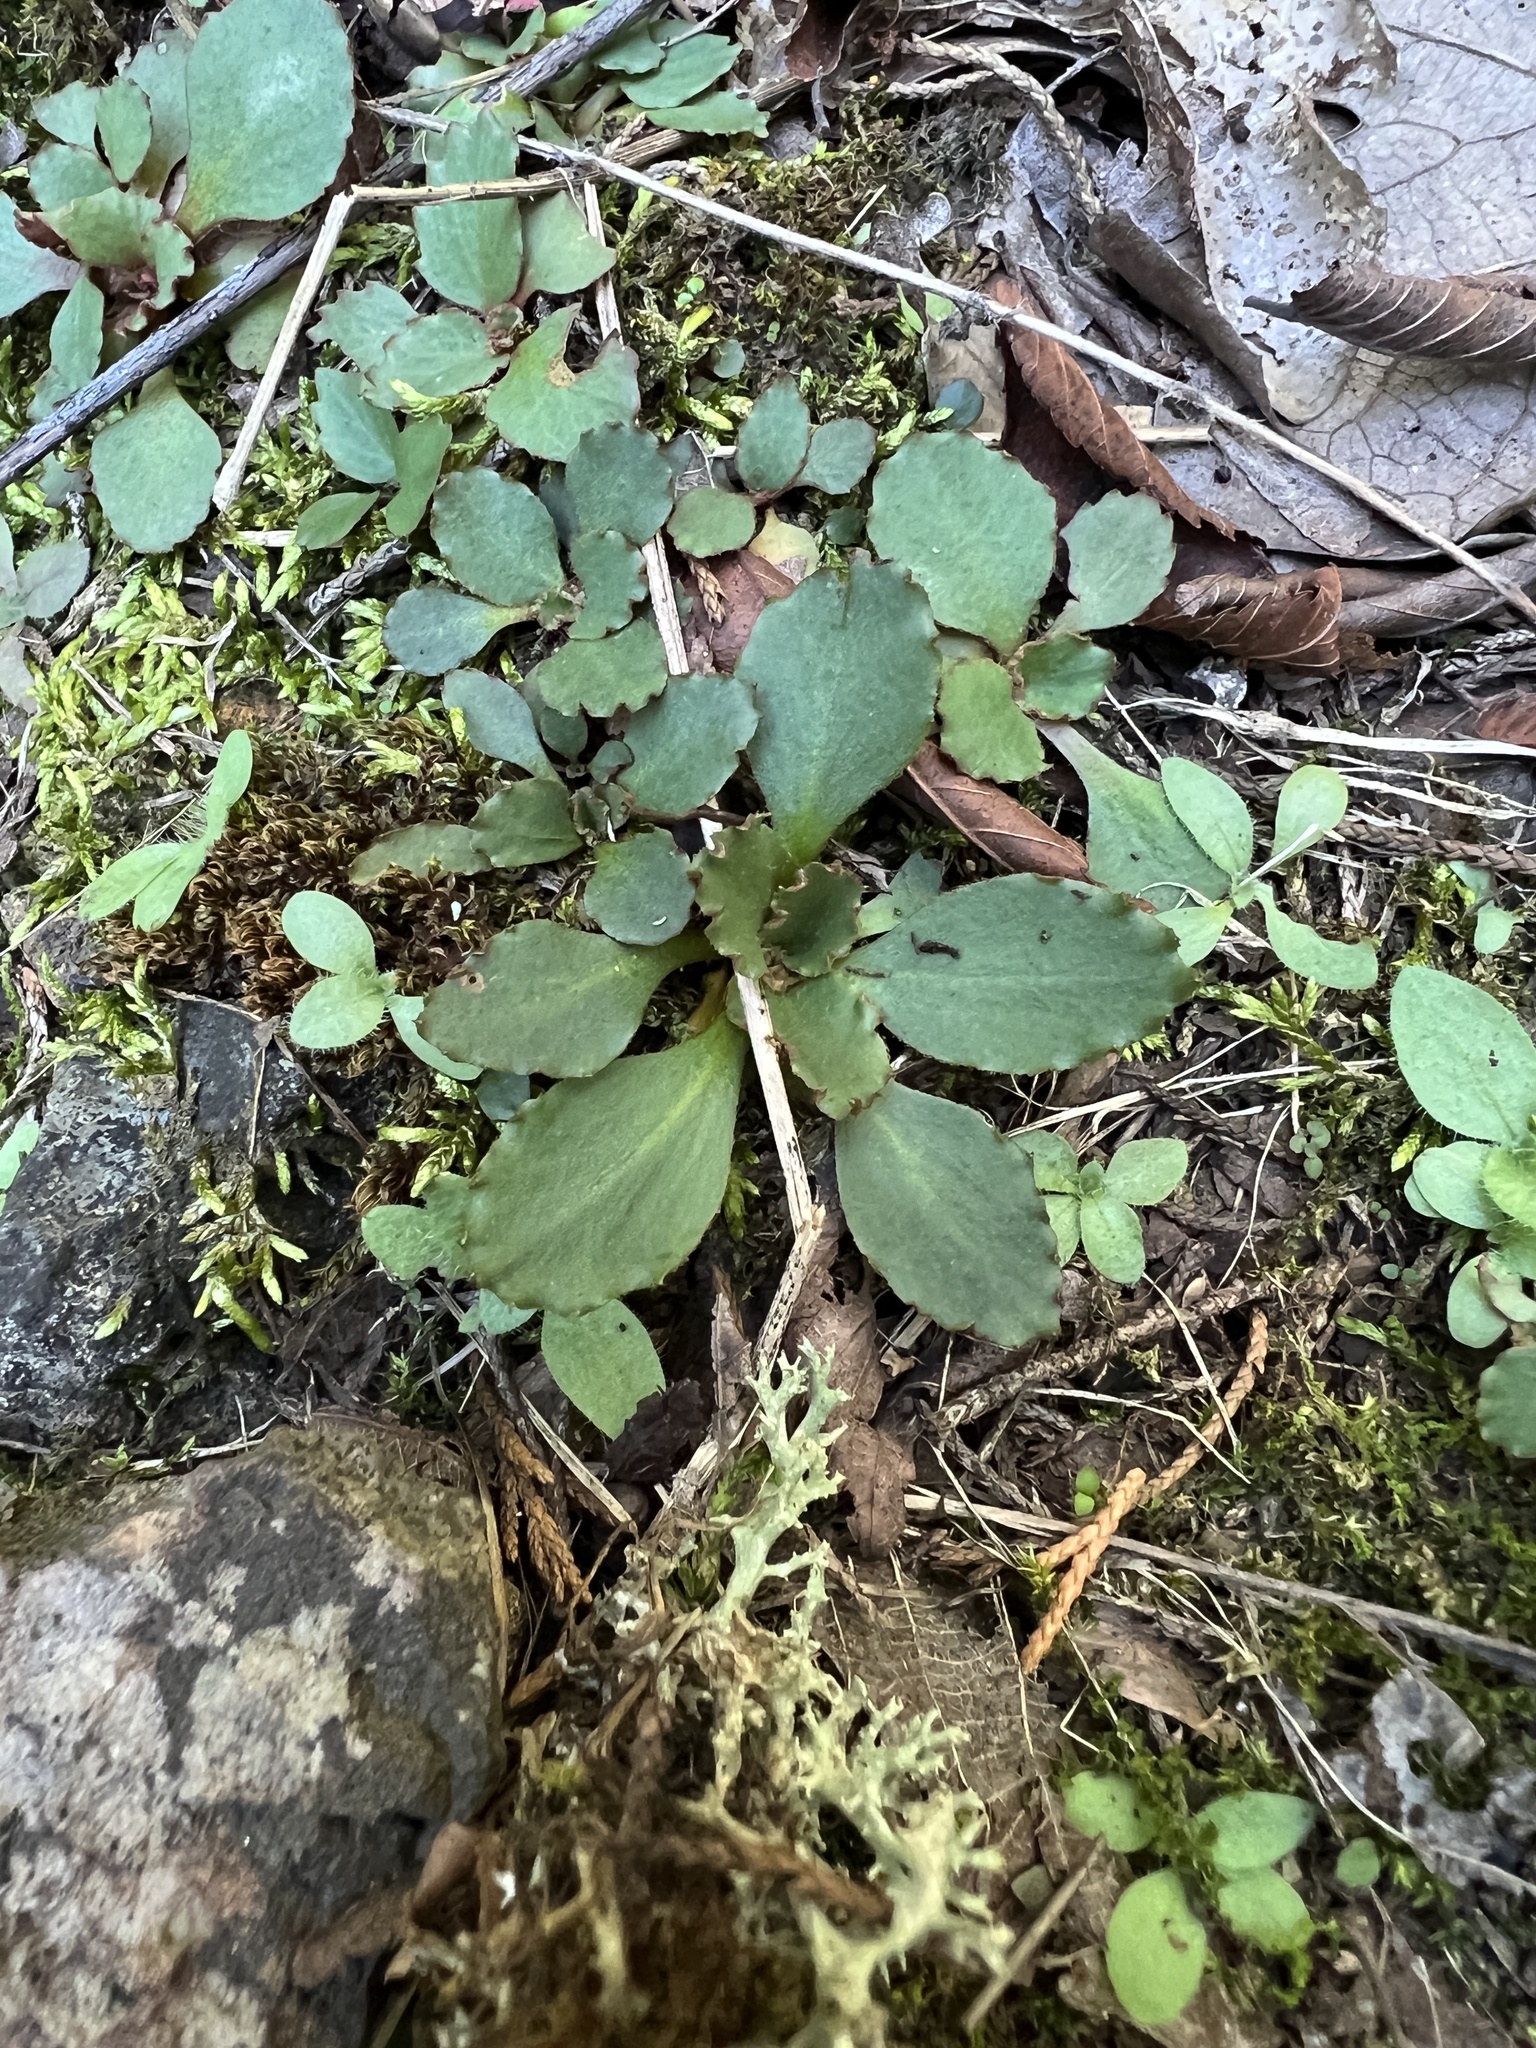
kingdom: Plantae
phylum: Tracheophyta
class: Magnoliopsida
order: Saxifragales
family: Saxifragaceae
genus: Micranthes
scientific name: Micranthes virginiensis
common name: Early saxifrage
